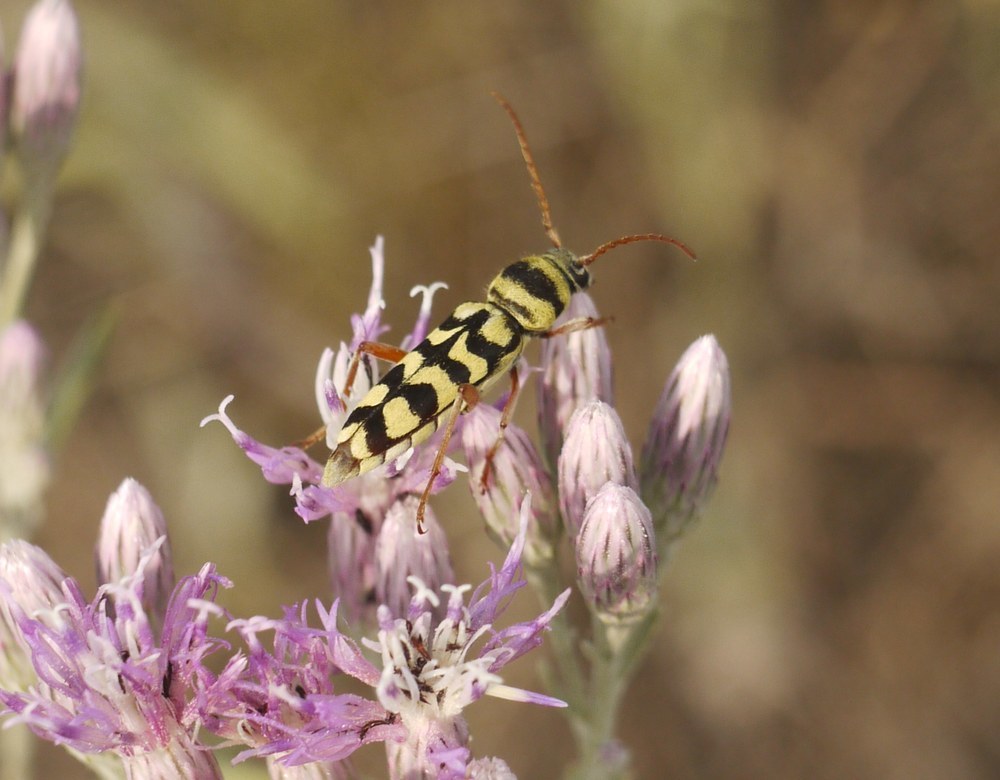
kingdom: Animalia
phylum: Arthropoda
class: Insecta
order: Coleoptera
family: Cerambycidae
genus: Plagionotus
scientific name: Plagionotus floralis
